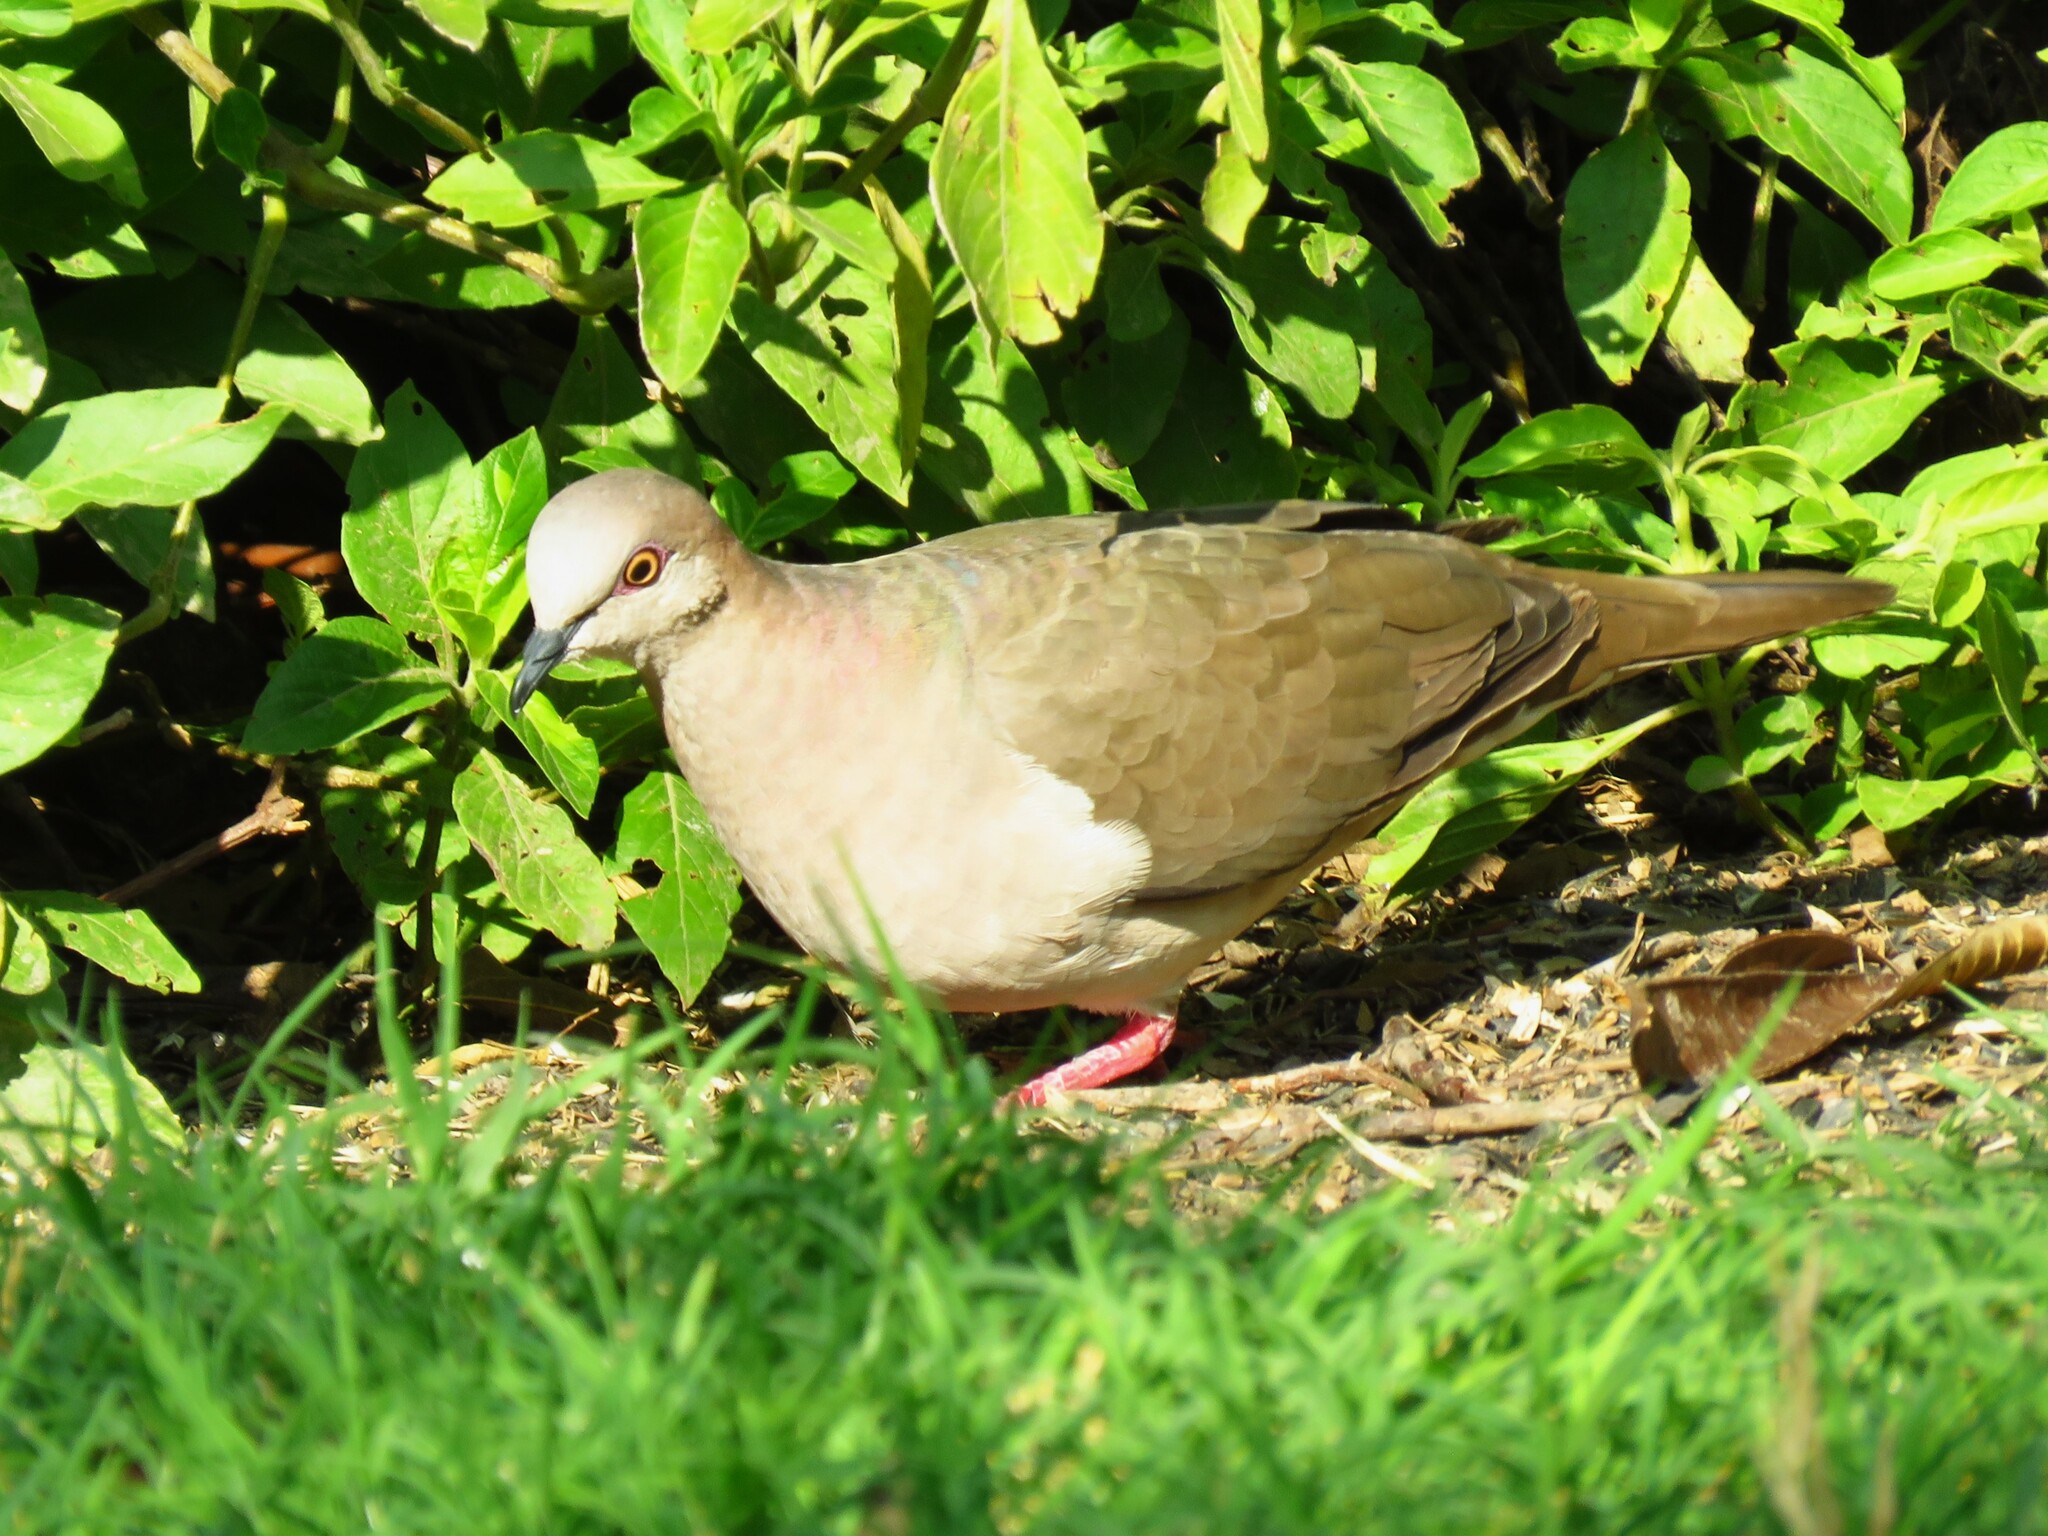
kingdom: Animalia
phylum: Chordata
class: Aves
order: Columbiformes
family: Columbidae
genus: Leptotila
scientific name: Leptotila verreauxi
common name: White-tipped dove
